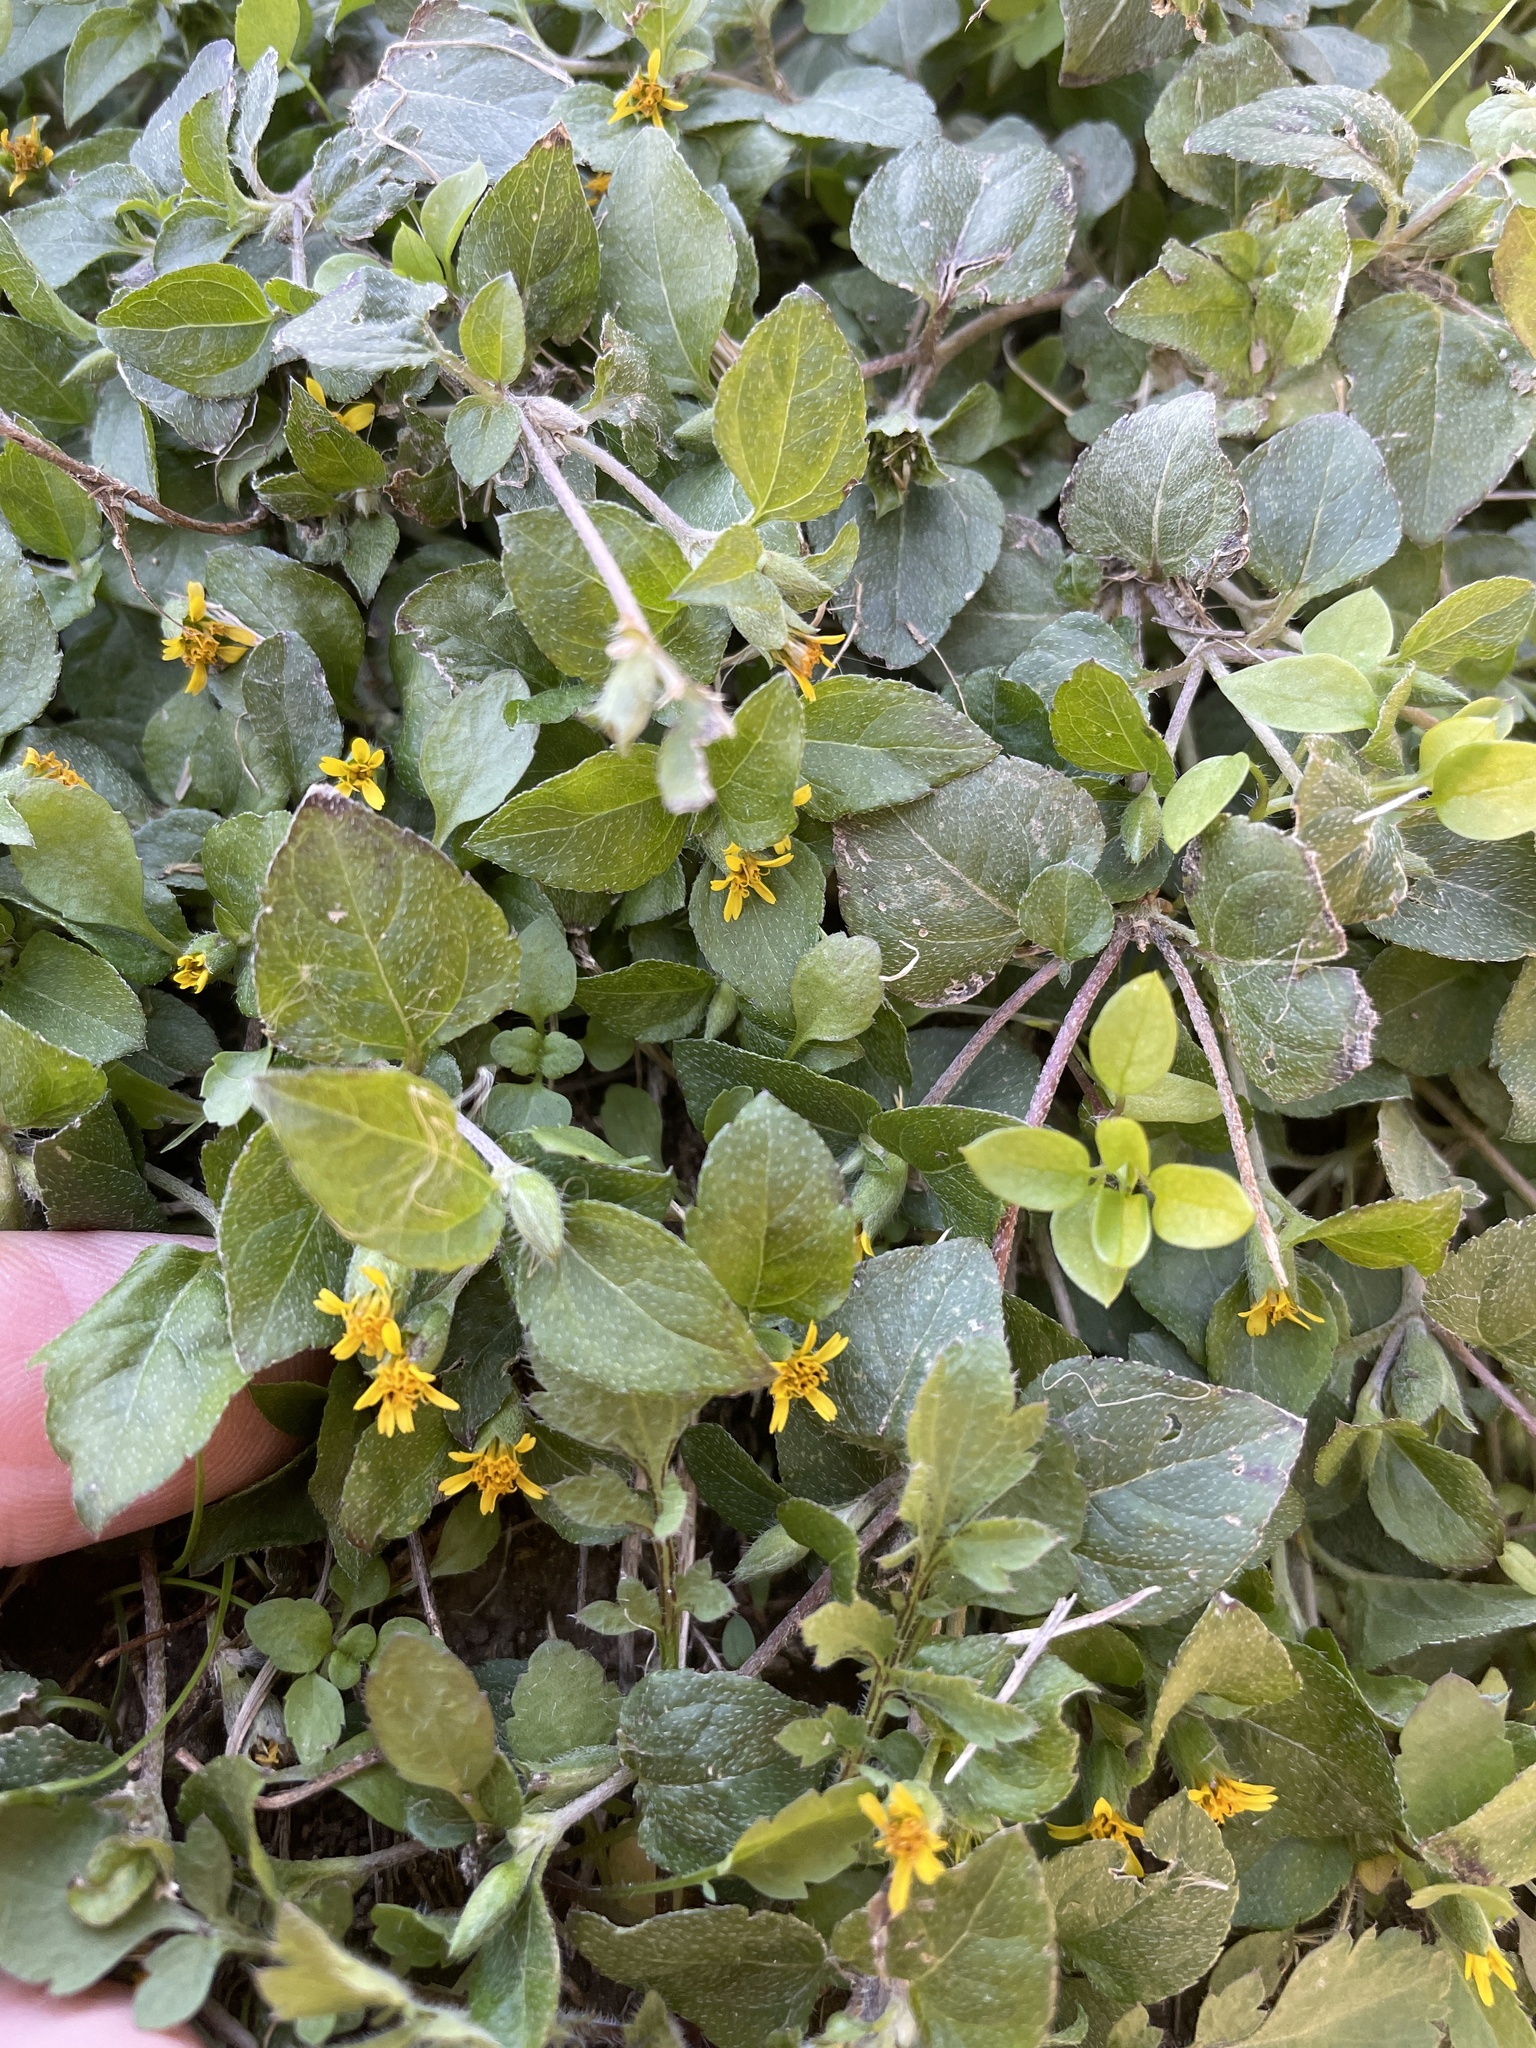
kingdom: Plantae
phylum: Tracheophyta
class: Magnoliopsida
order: Asterales
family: Asteraceae
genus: Calyptocarpus
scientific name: Calyptocarpus vialis
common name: Straggler daisy
